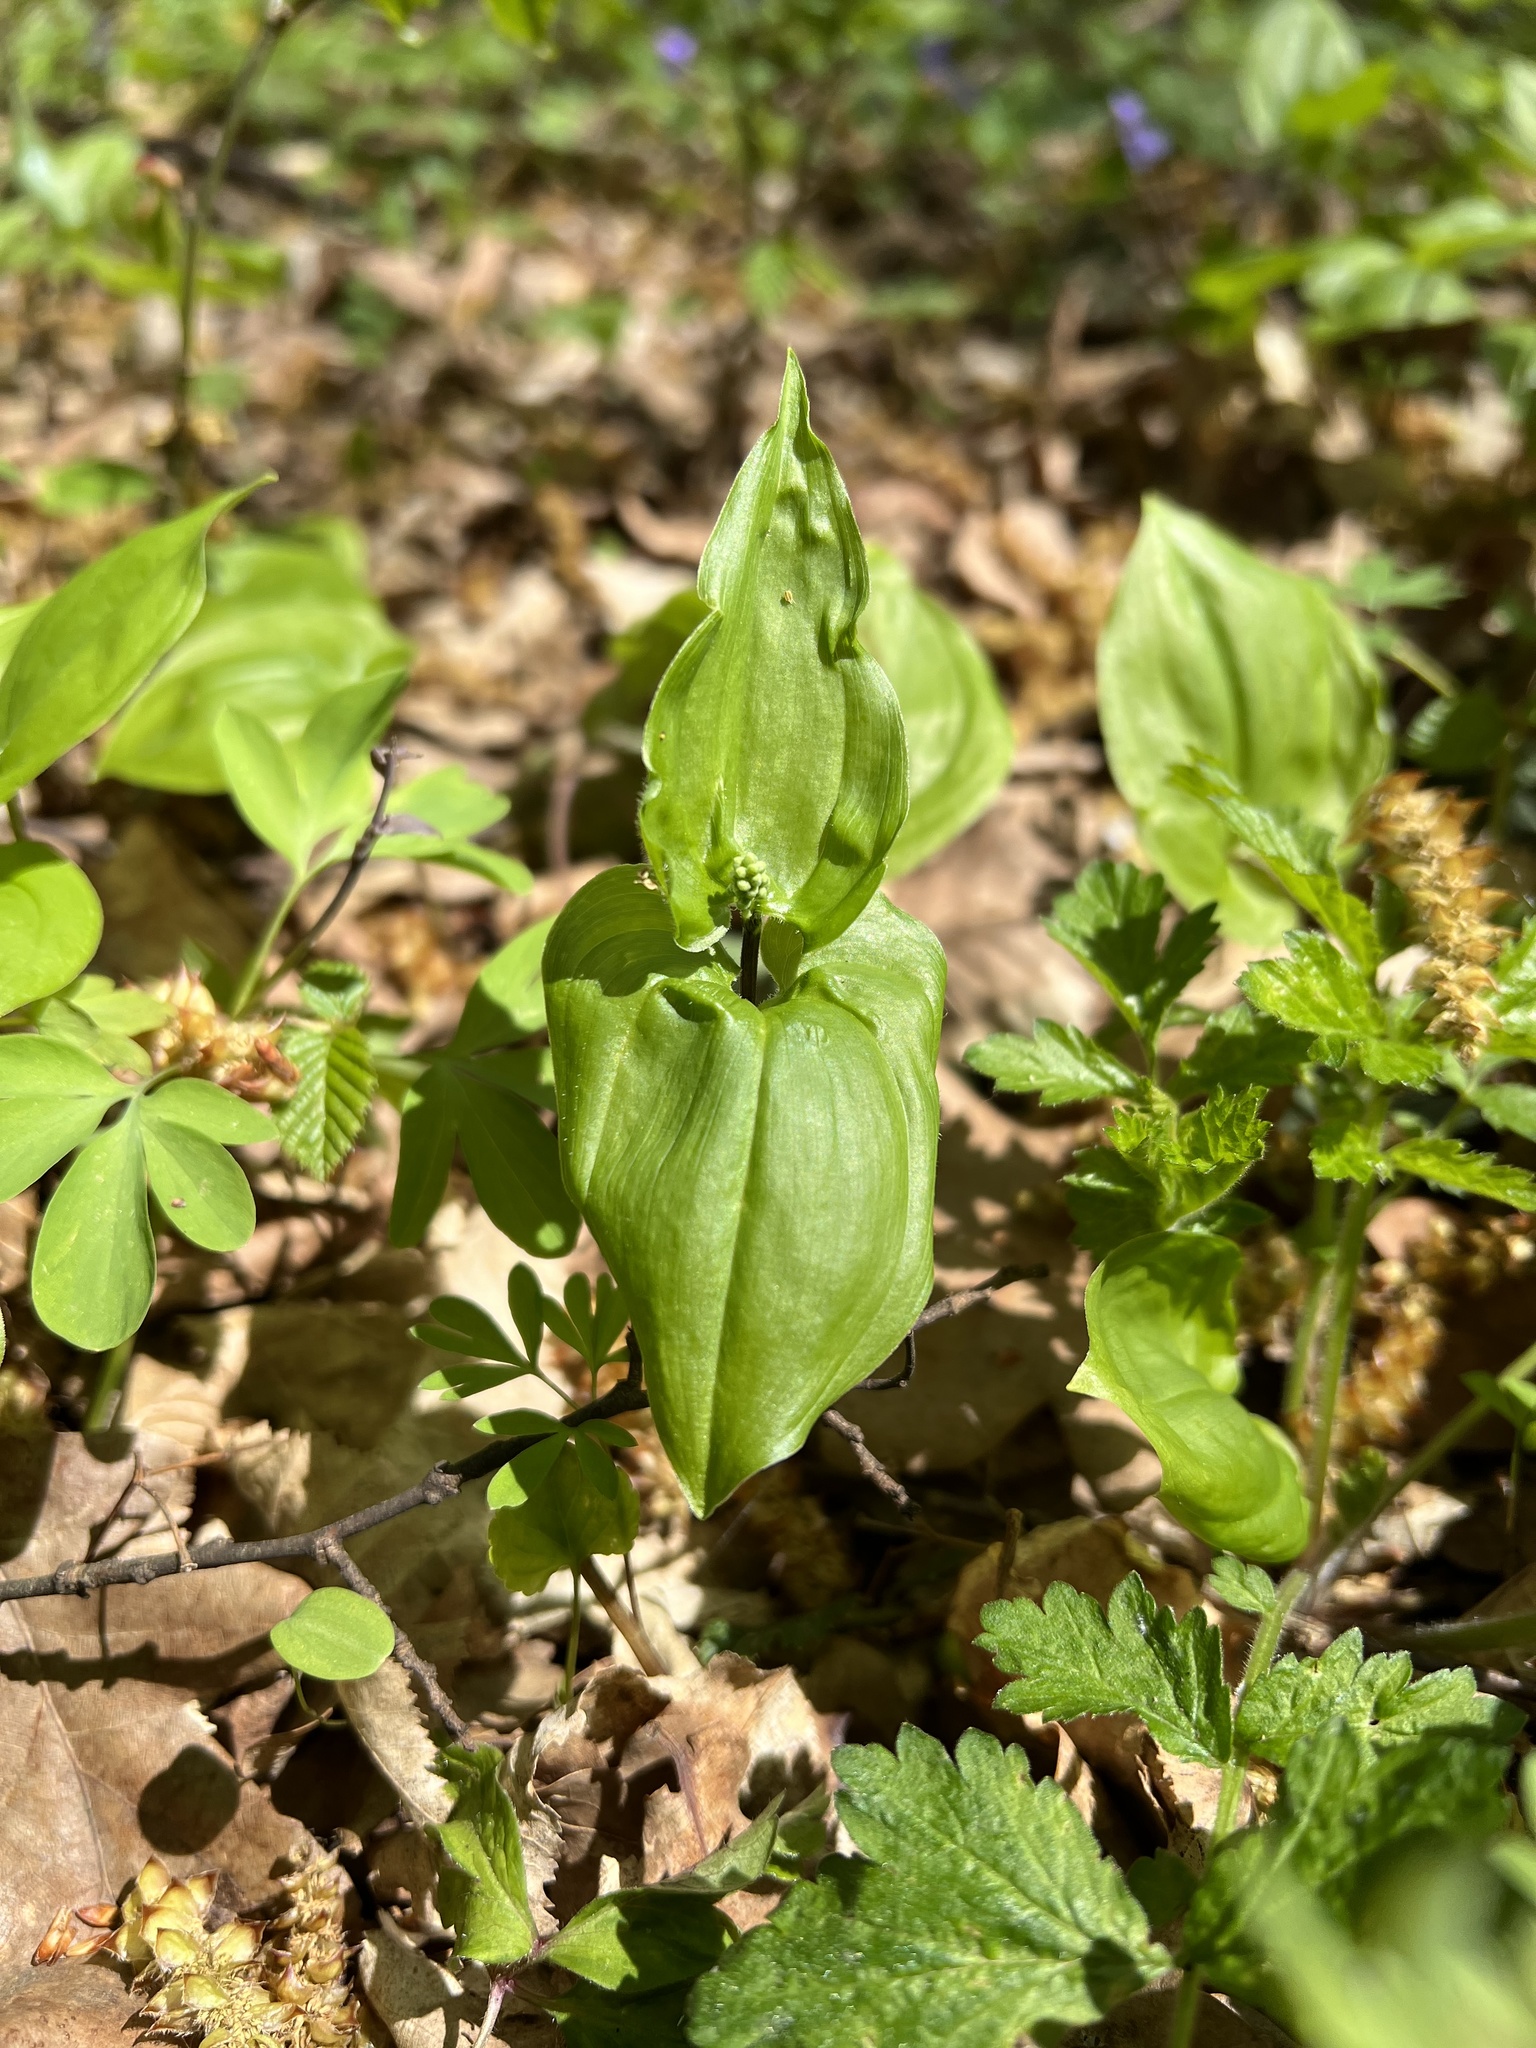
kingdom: Plantae
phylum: Tracheophyta
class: Liliopsida
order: Asparagales
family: Asparagaceae
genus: Maianthemum
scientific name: Maianthemum bifolium
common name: May lily
